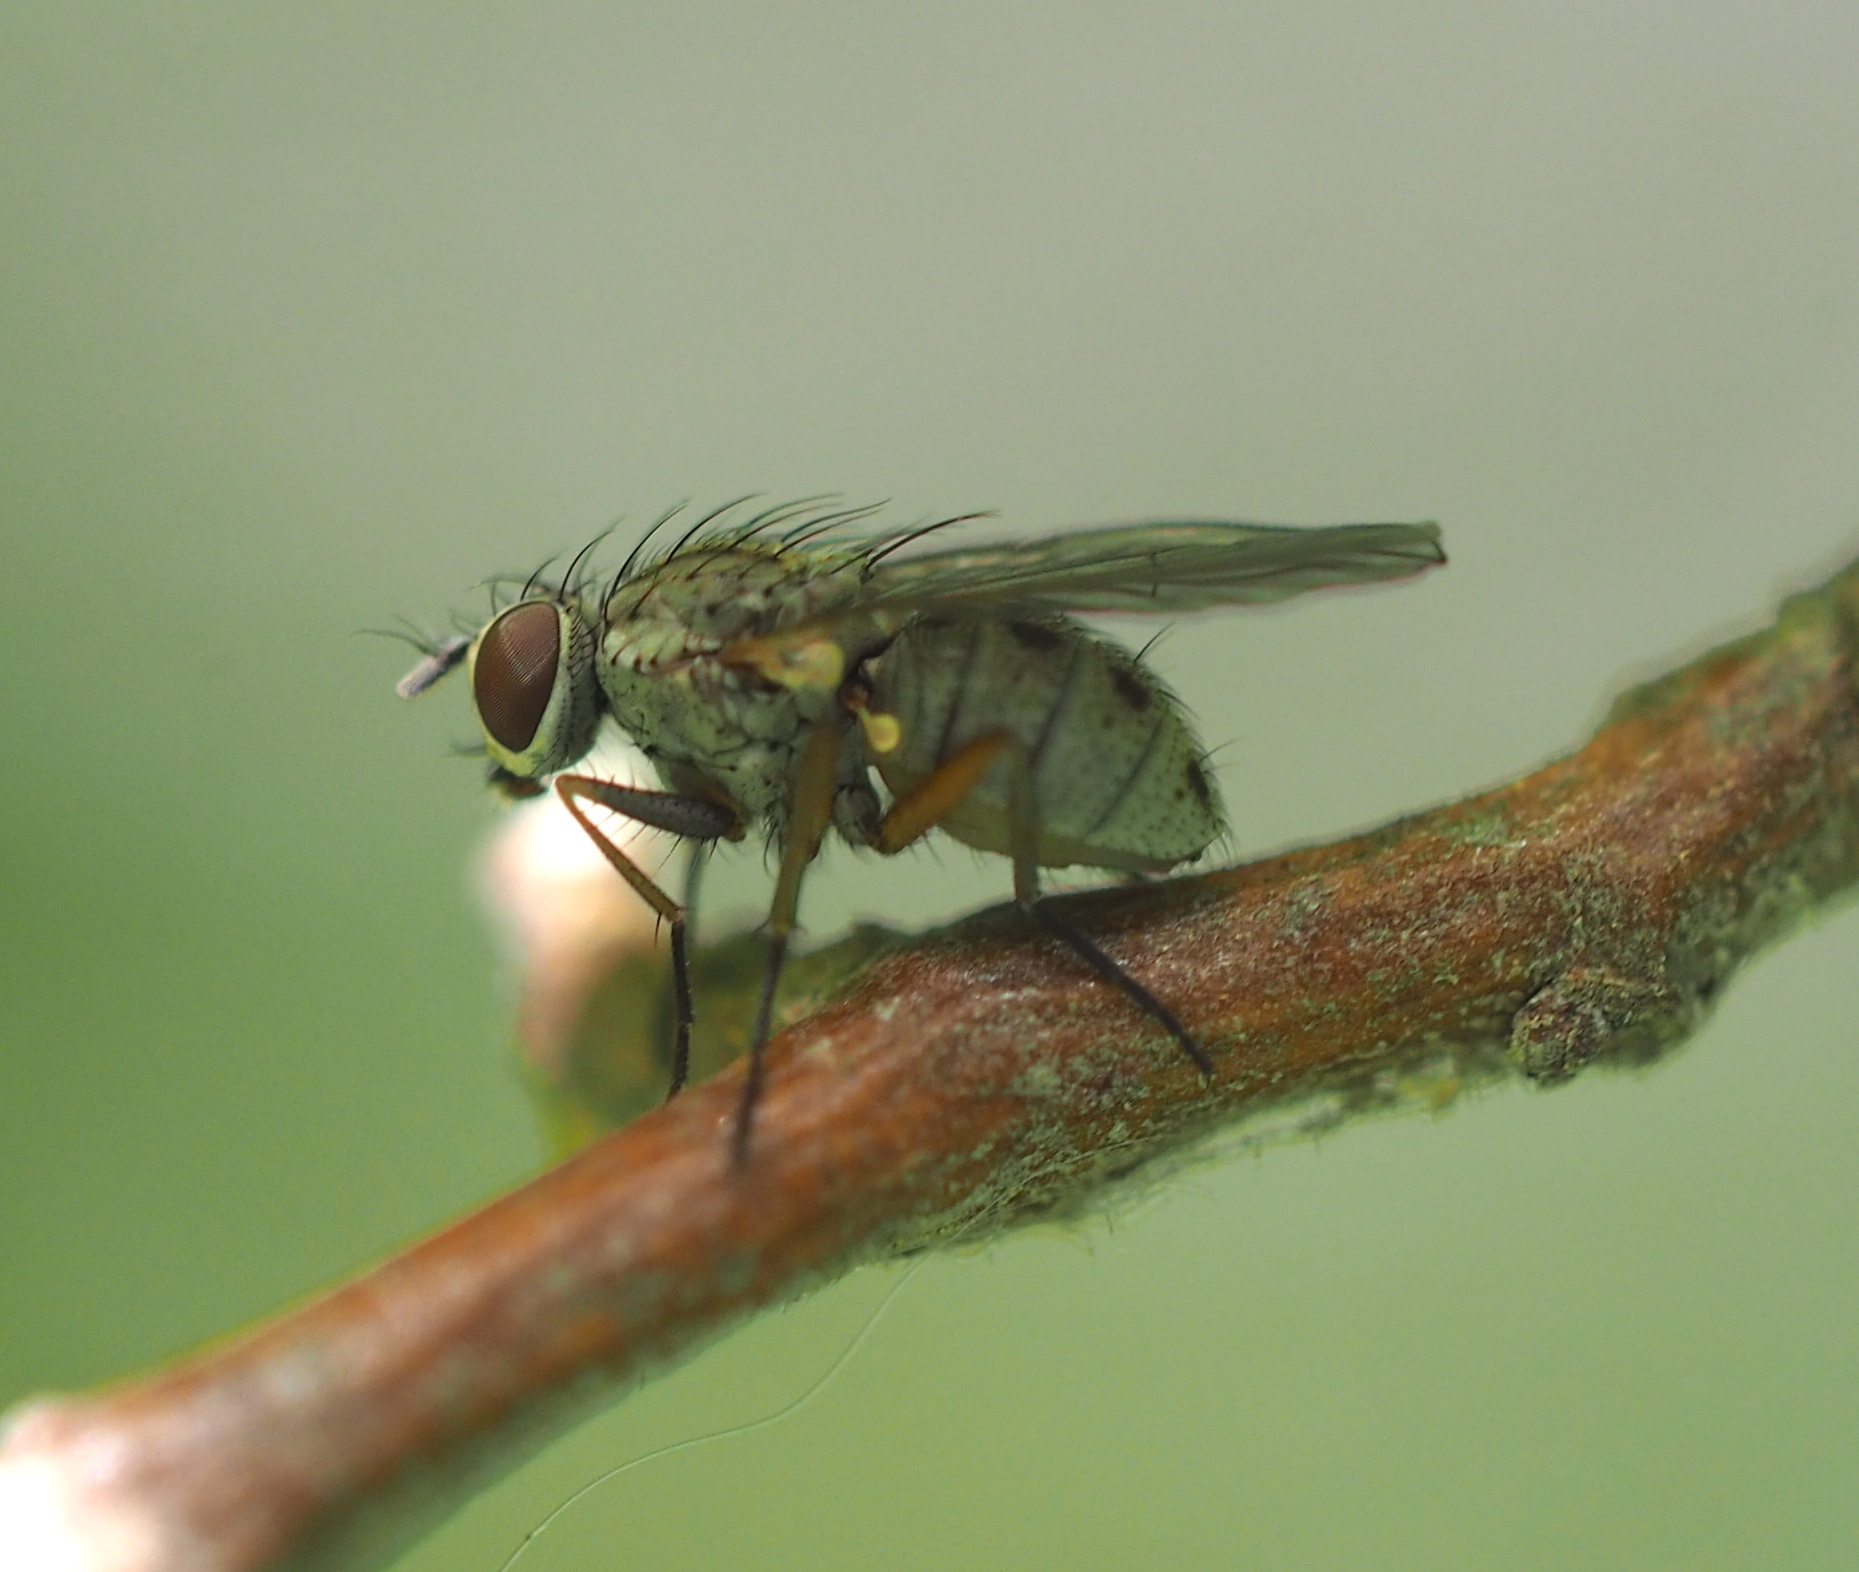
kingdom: Animalia
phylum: Arthropoda
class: Insecta
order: Diptera
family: Muscidae
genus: Coenosia
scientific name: Coenosia tigrina
